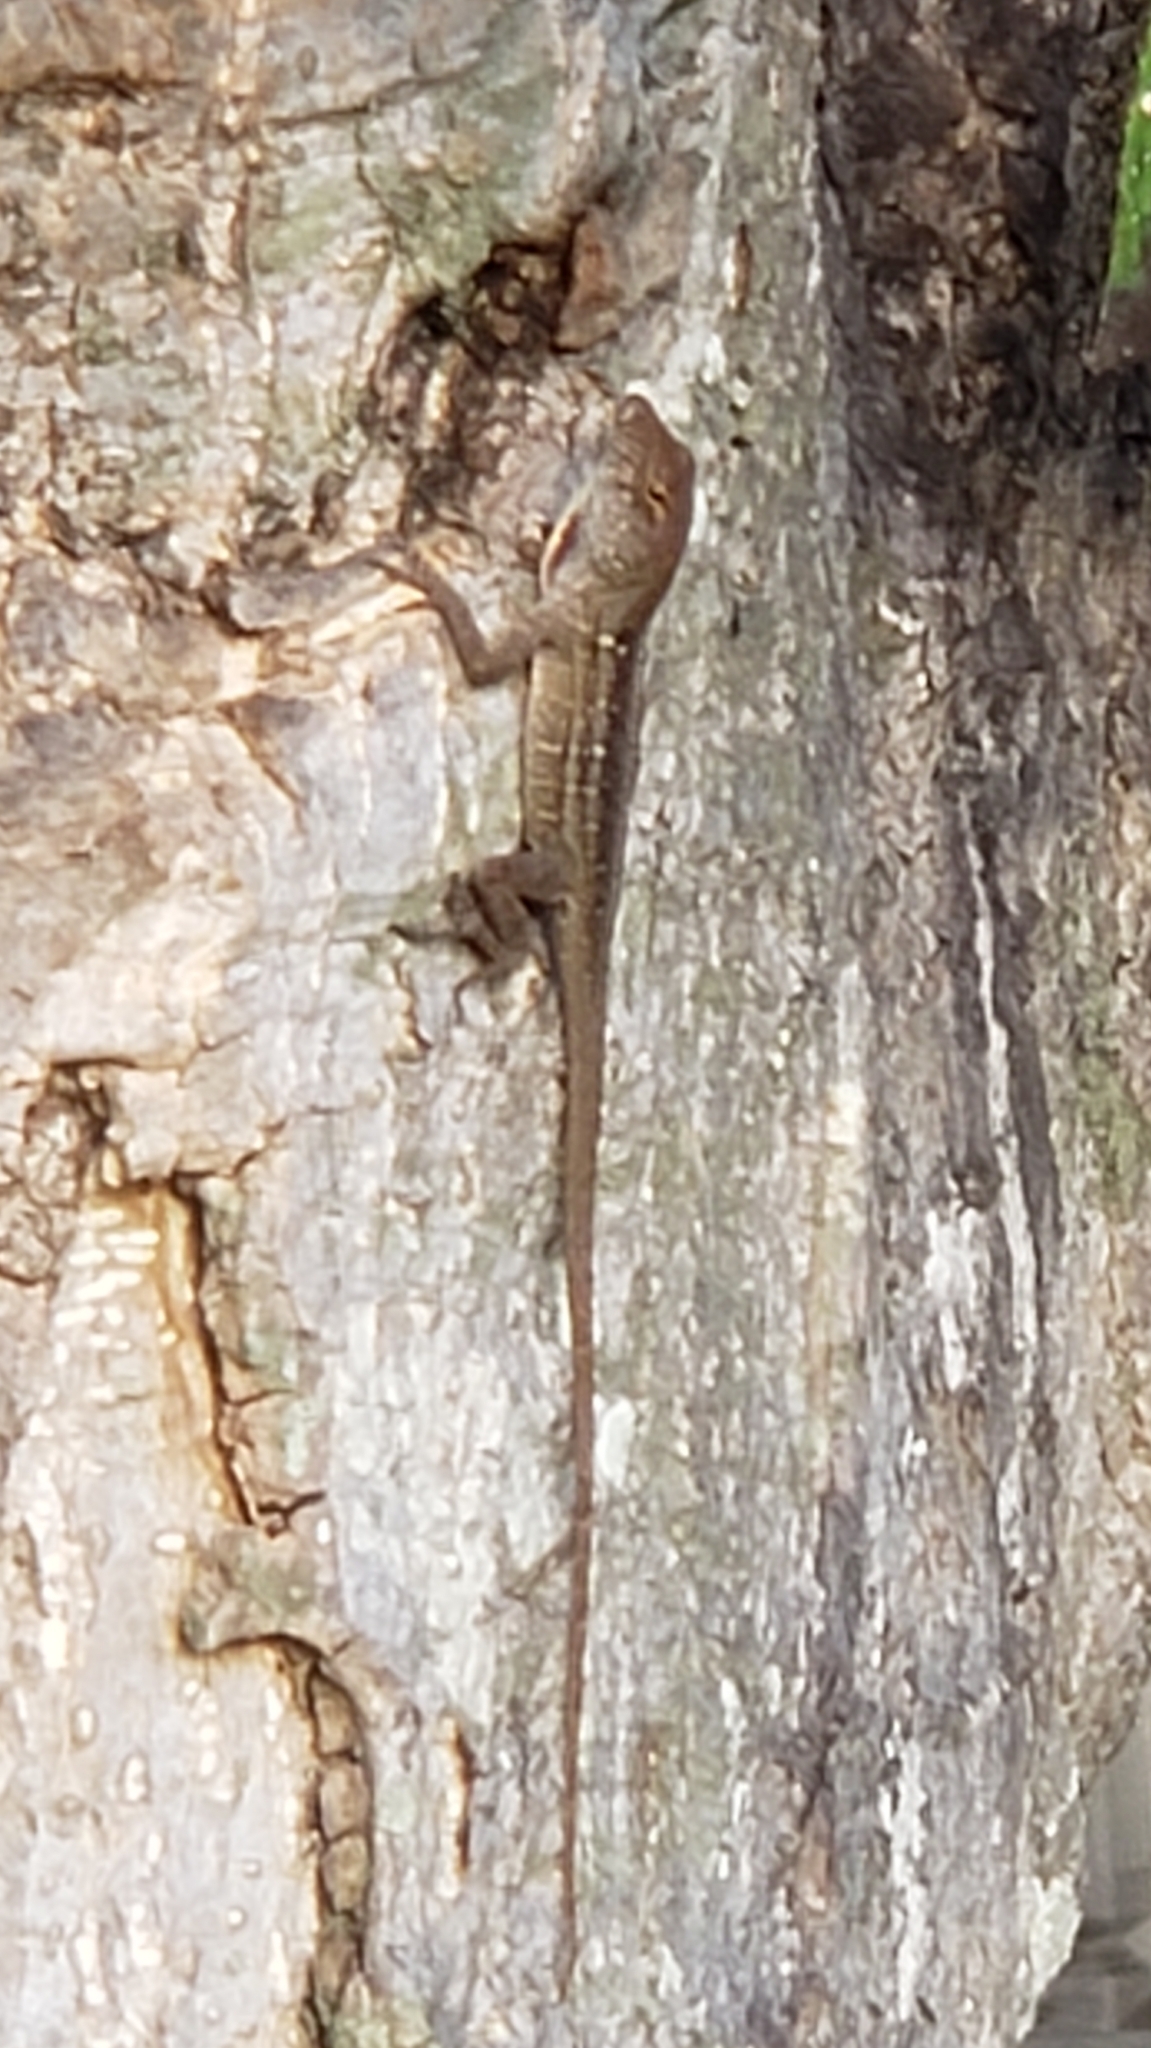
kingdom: Animalia
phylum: Chordata
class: Squamata
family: Dactyloidae
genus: Anolis
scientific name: Anolis sagrei
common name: Brown anole
